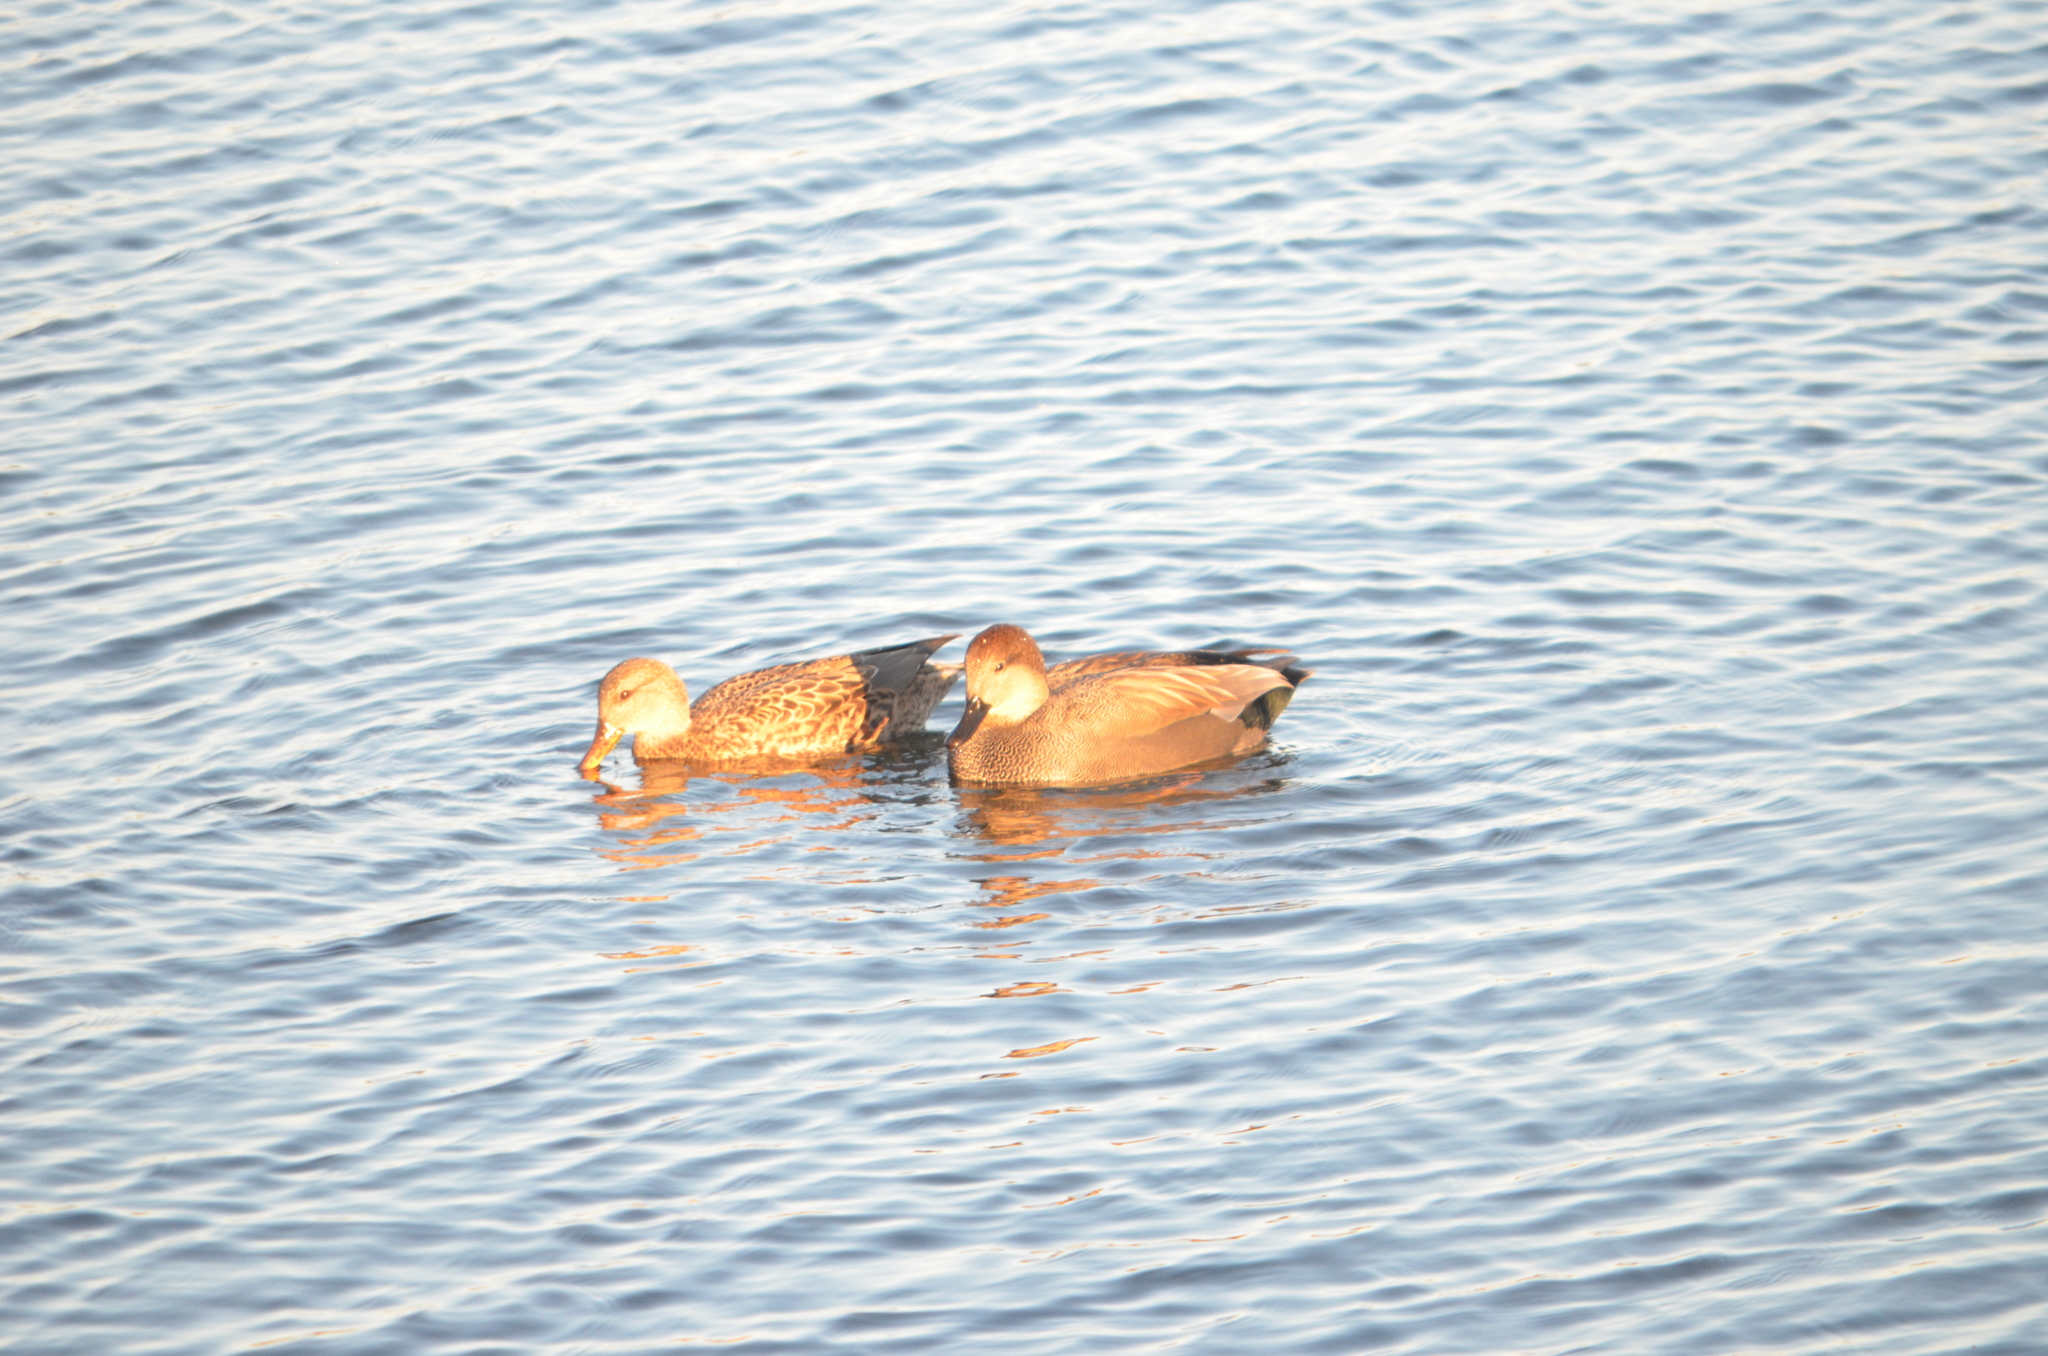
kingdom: Animalia
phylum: Chordata
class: Aves
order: Anseriformes
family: Anatidae
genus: Mareca
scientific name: Mareca strepera
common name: Gadwall
